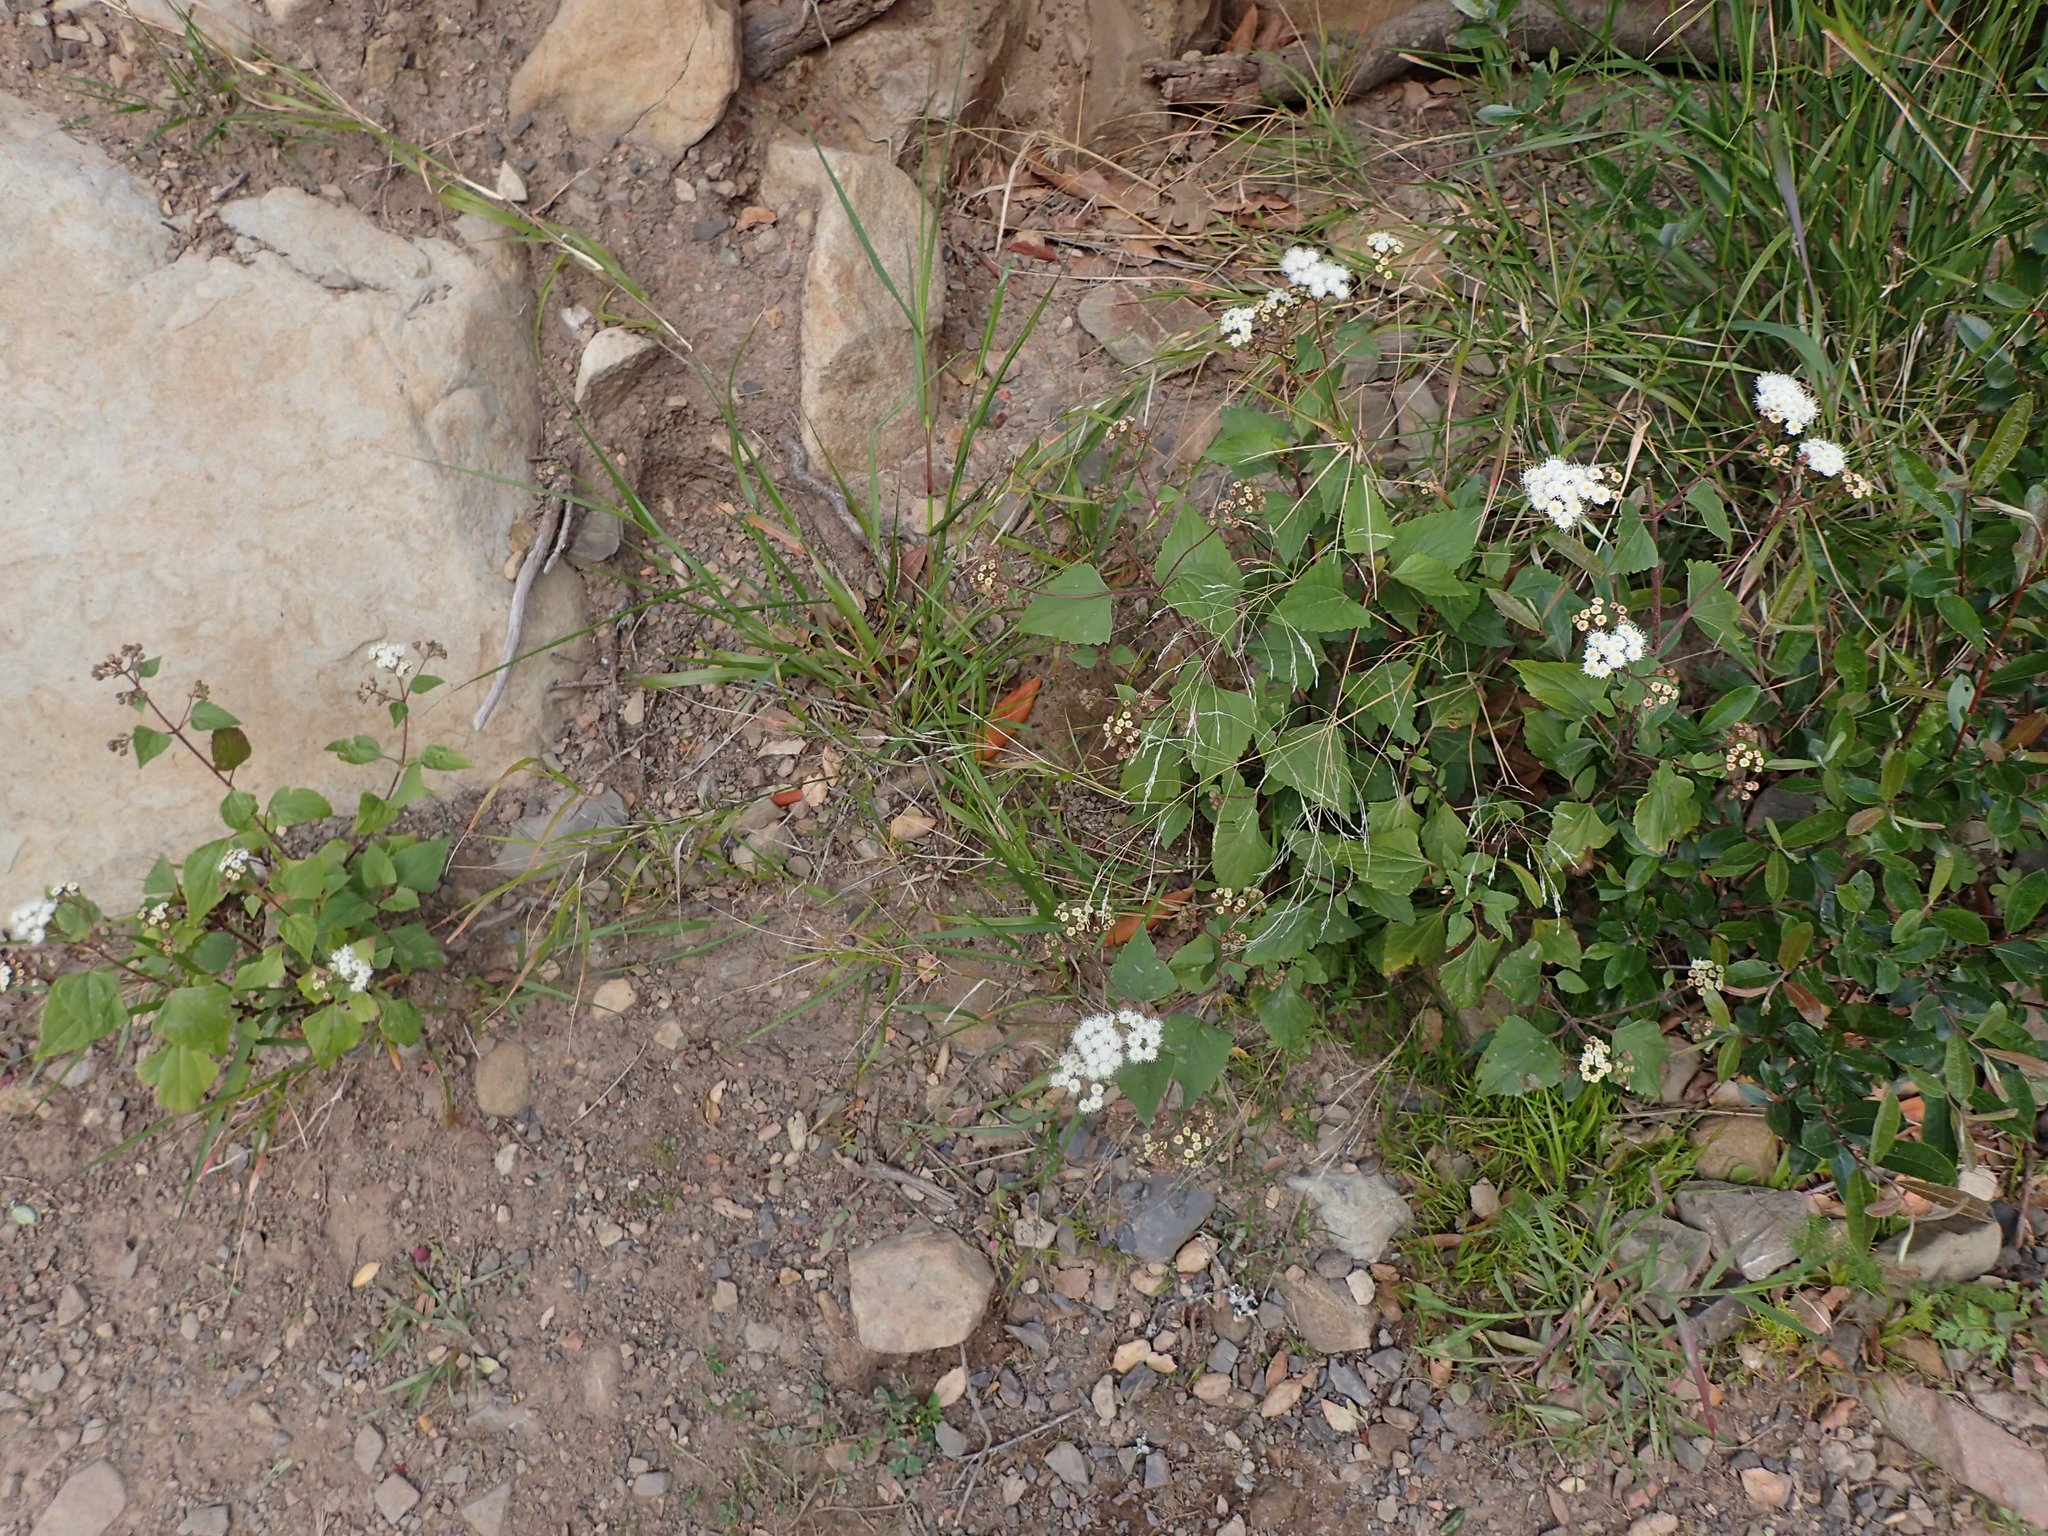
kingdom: Plantae
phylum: Tracheophyta
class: Magnoliopsida
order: Asterales
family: Asteraceae
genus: Ageratina
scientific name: Ageratina adenophora
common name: Sticky snakeroot
